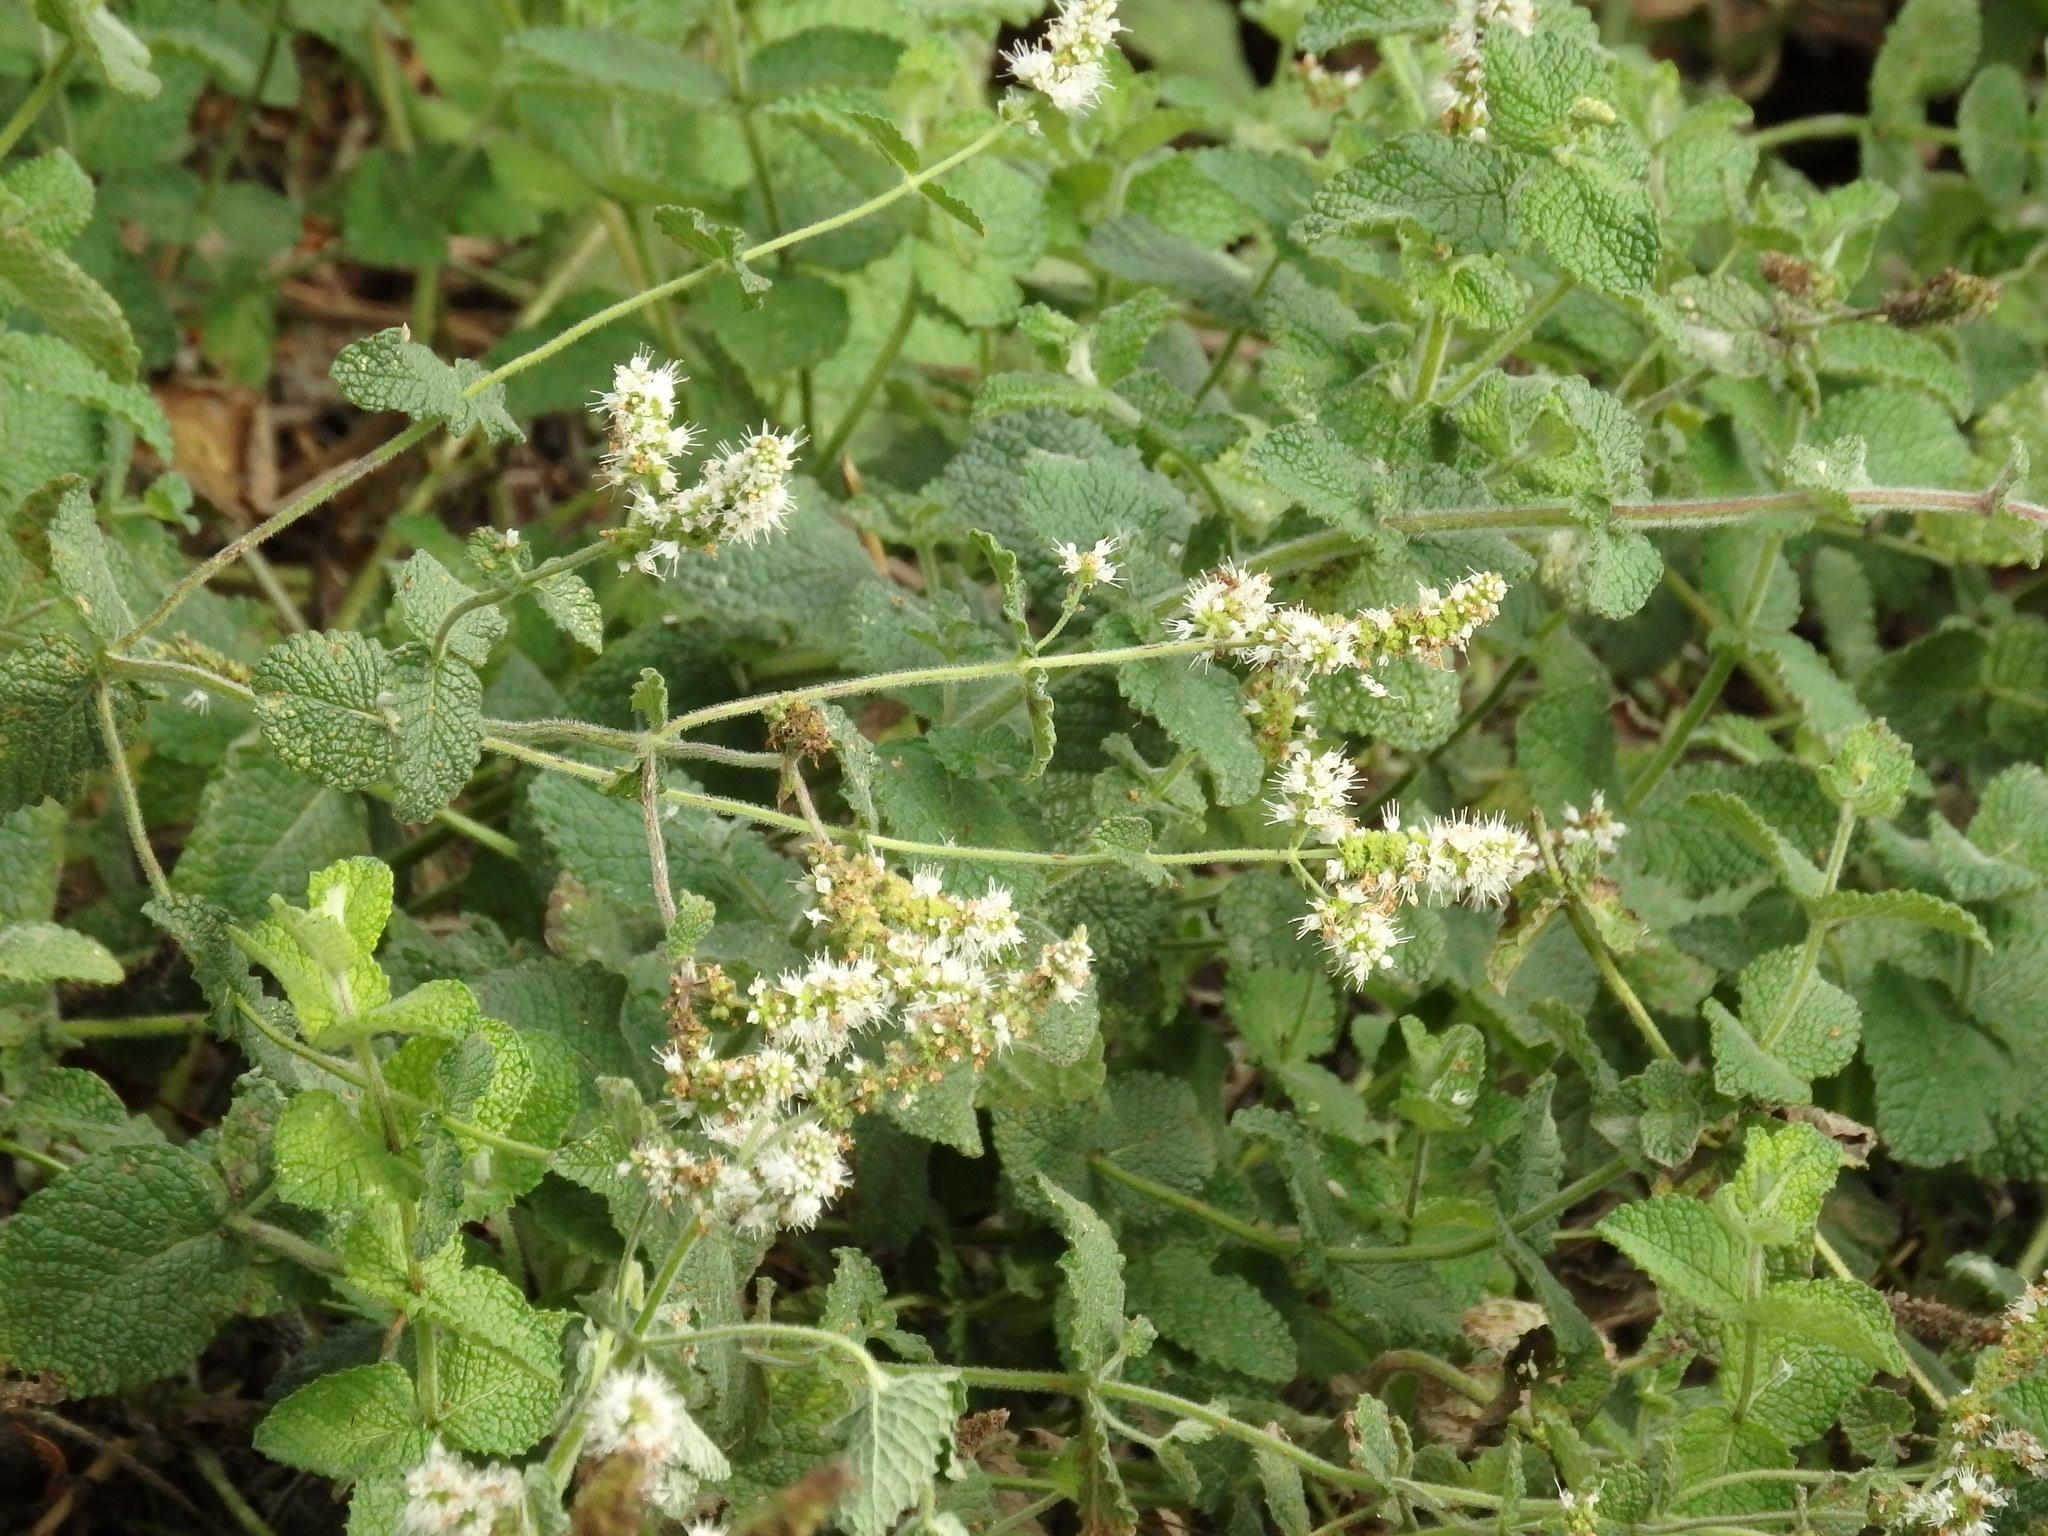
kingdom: Plantae
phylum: Tracheophyta
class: Magnoliopsida
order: Lamiales
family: Lamiaceae
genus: Mentha
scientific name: Mentha suaveolens
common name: Apple mint
